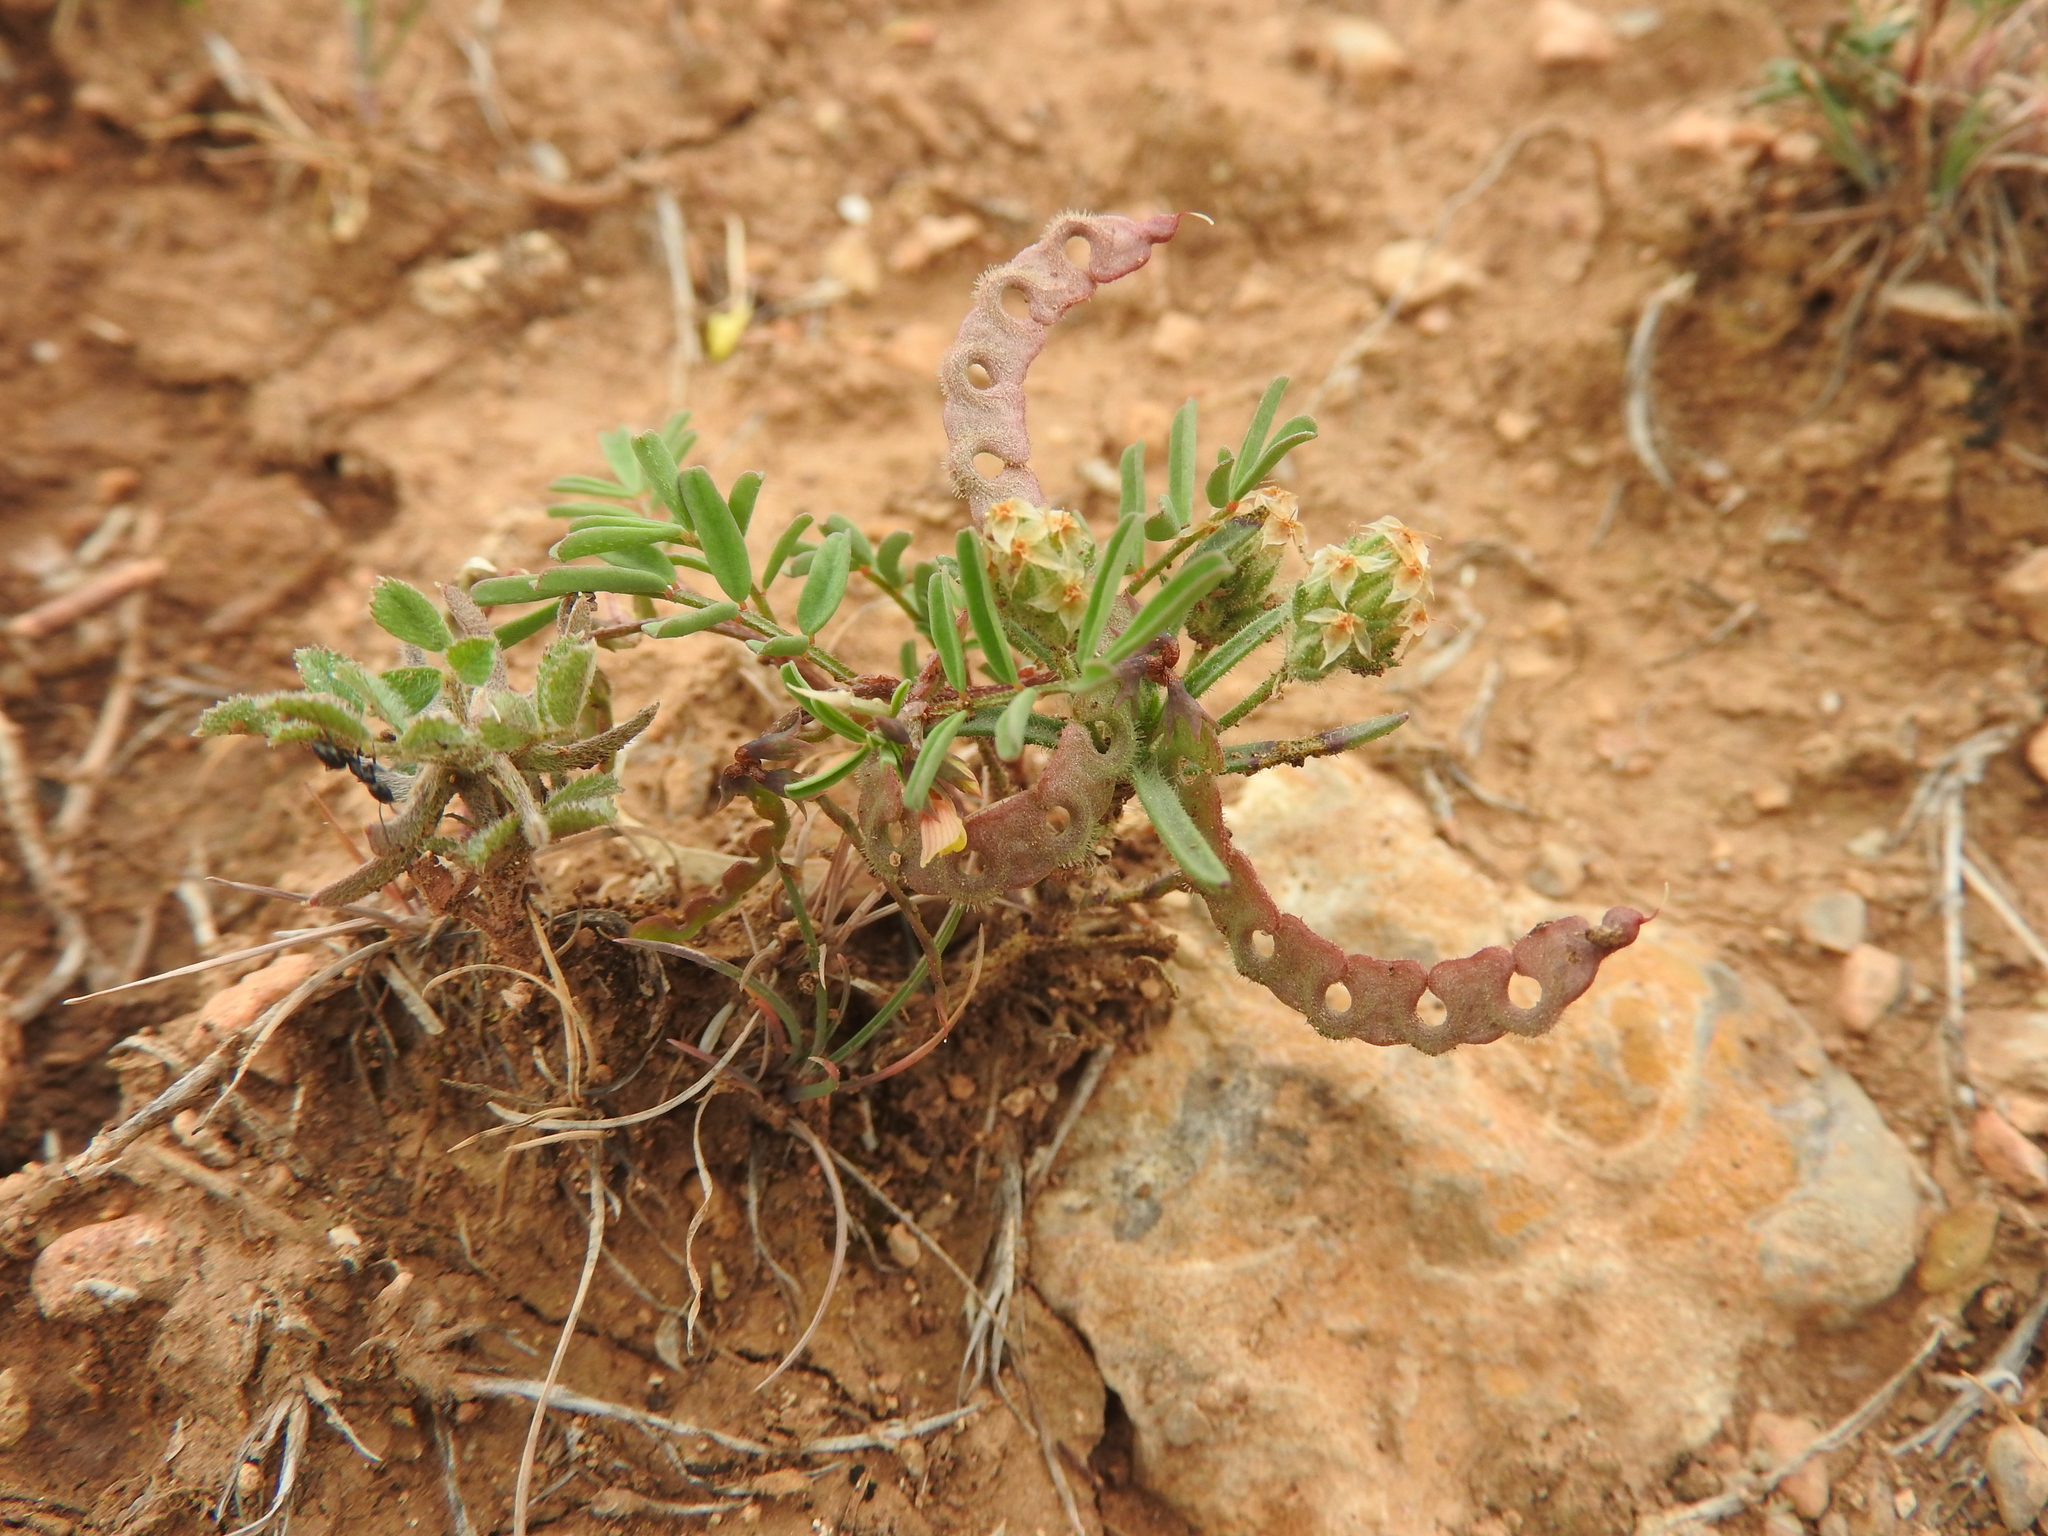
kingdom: Plantae
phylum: Tracheophyta
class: Magnoliopsida
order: Fabales
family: Fabaceae
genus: Hippocrepis
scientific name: Hippocrepis ciliata
